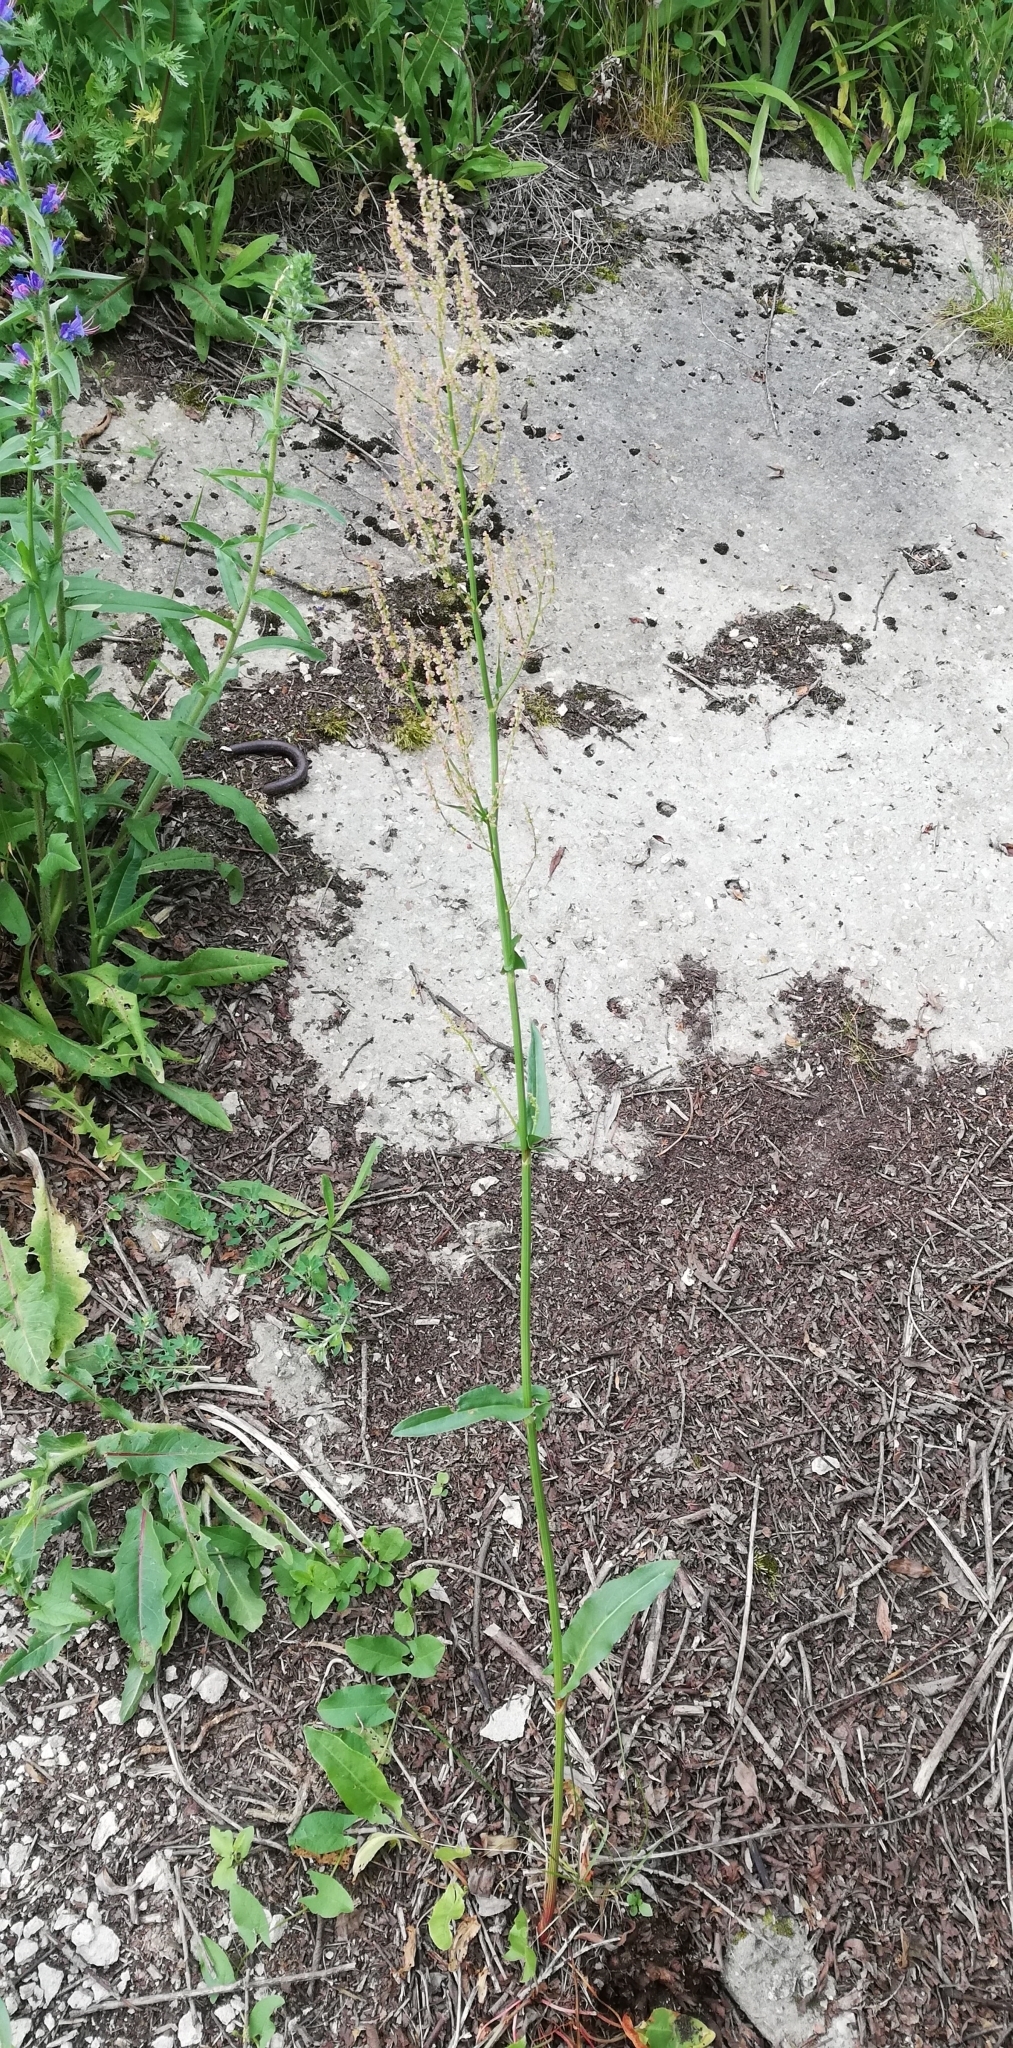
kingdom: Plantae
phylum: Tracheophyta
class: Magnoliopsida
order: Caryophyllales
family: Polygonaceae
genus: Rumex
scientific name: Rumex acetosa
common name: Garden sorrel
